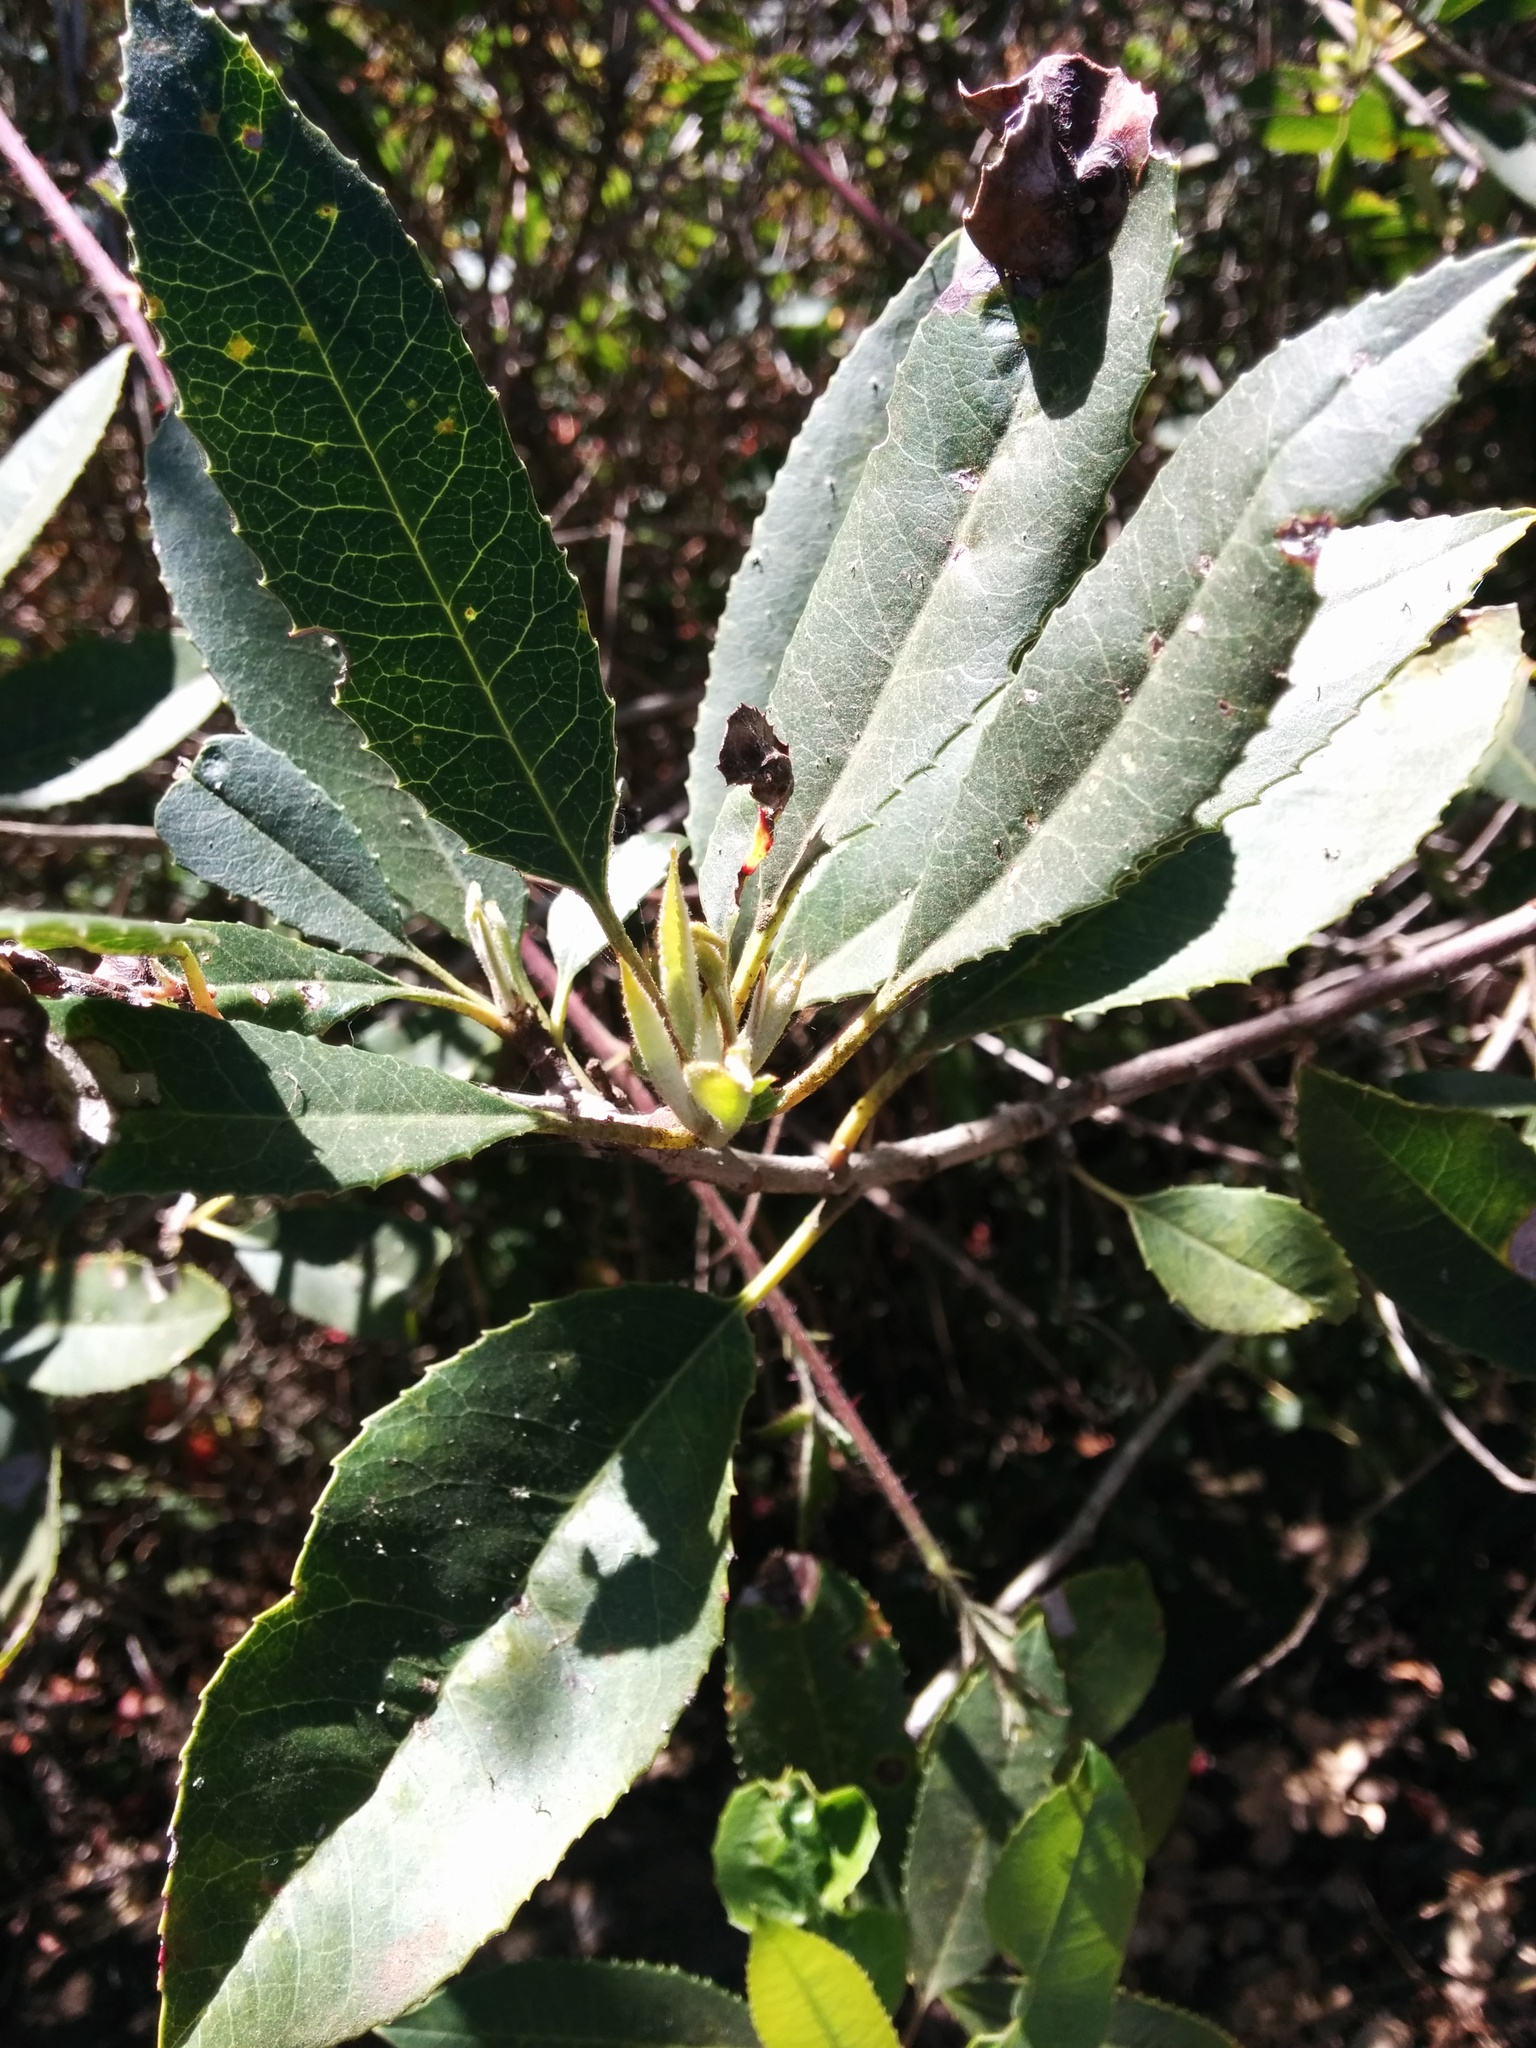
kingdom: Plantae
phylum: Tracheophyta
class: Magnoliopsida
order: Rosales
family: Rosaceae
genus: Heteromeles
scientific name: Heteromeles arbutifolia
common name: California-holly
